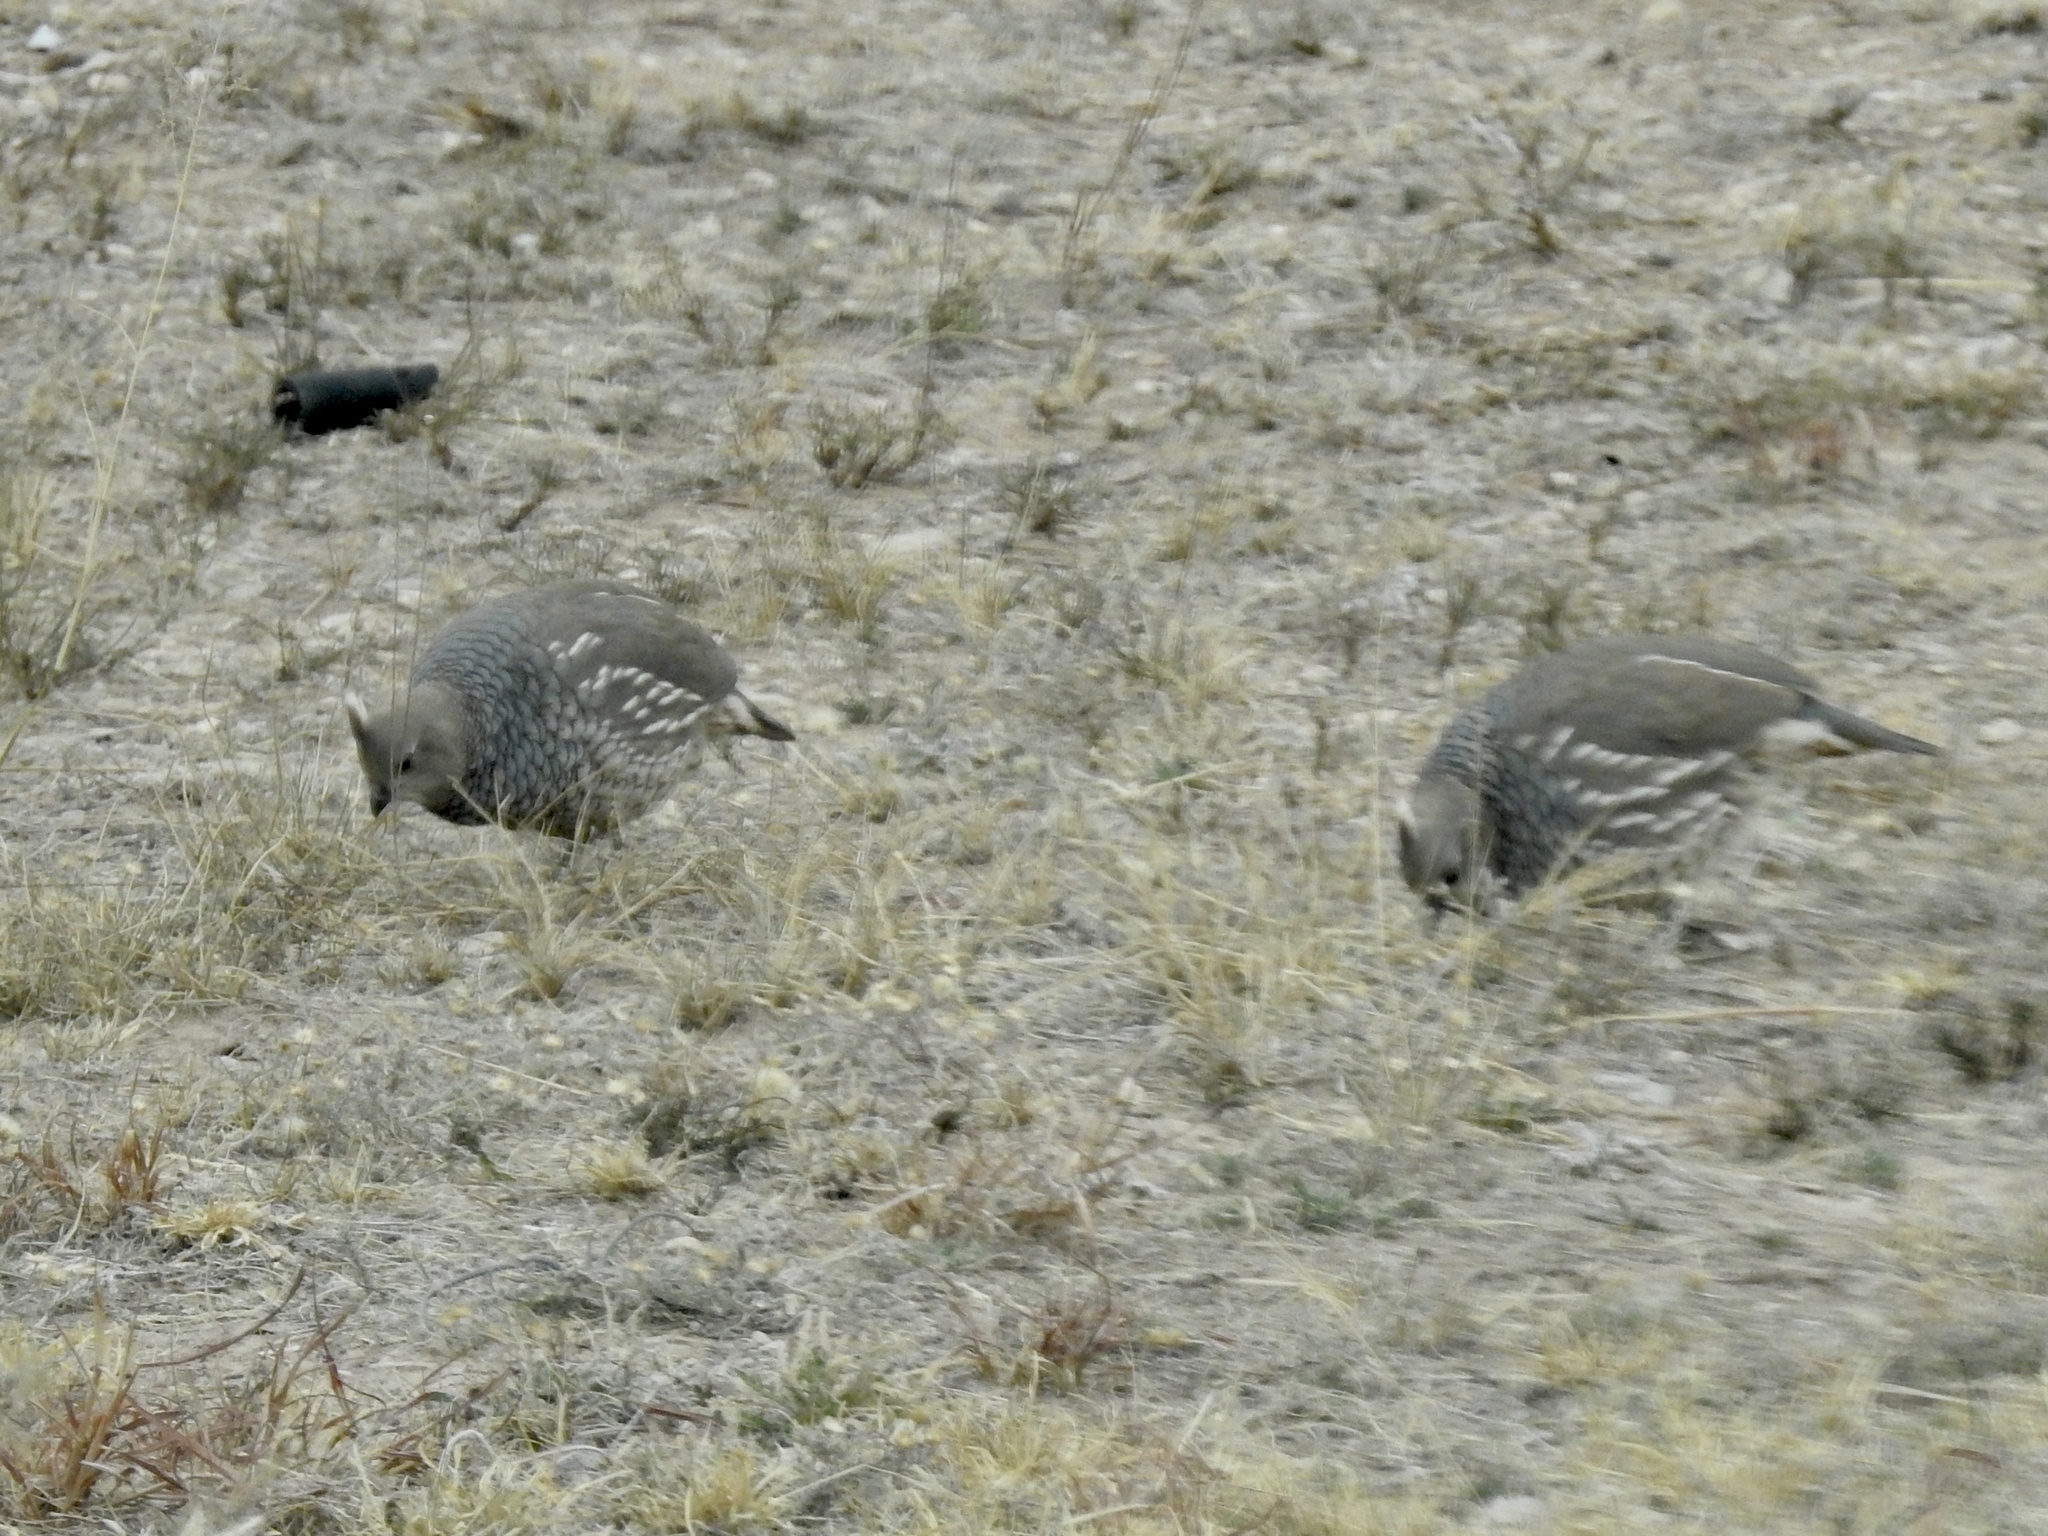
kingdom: Animalia
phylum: Chordata
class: Aves
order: Galliformes
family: Odontophoridae
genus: Callipepla
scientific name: Callipepla squamata
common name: Scaled quail
